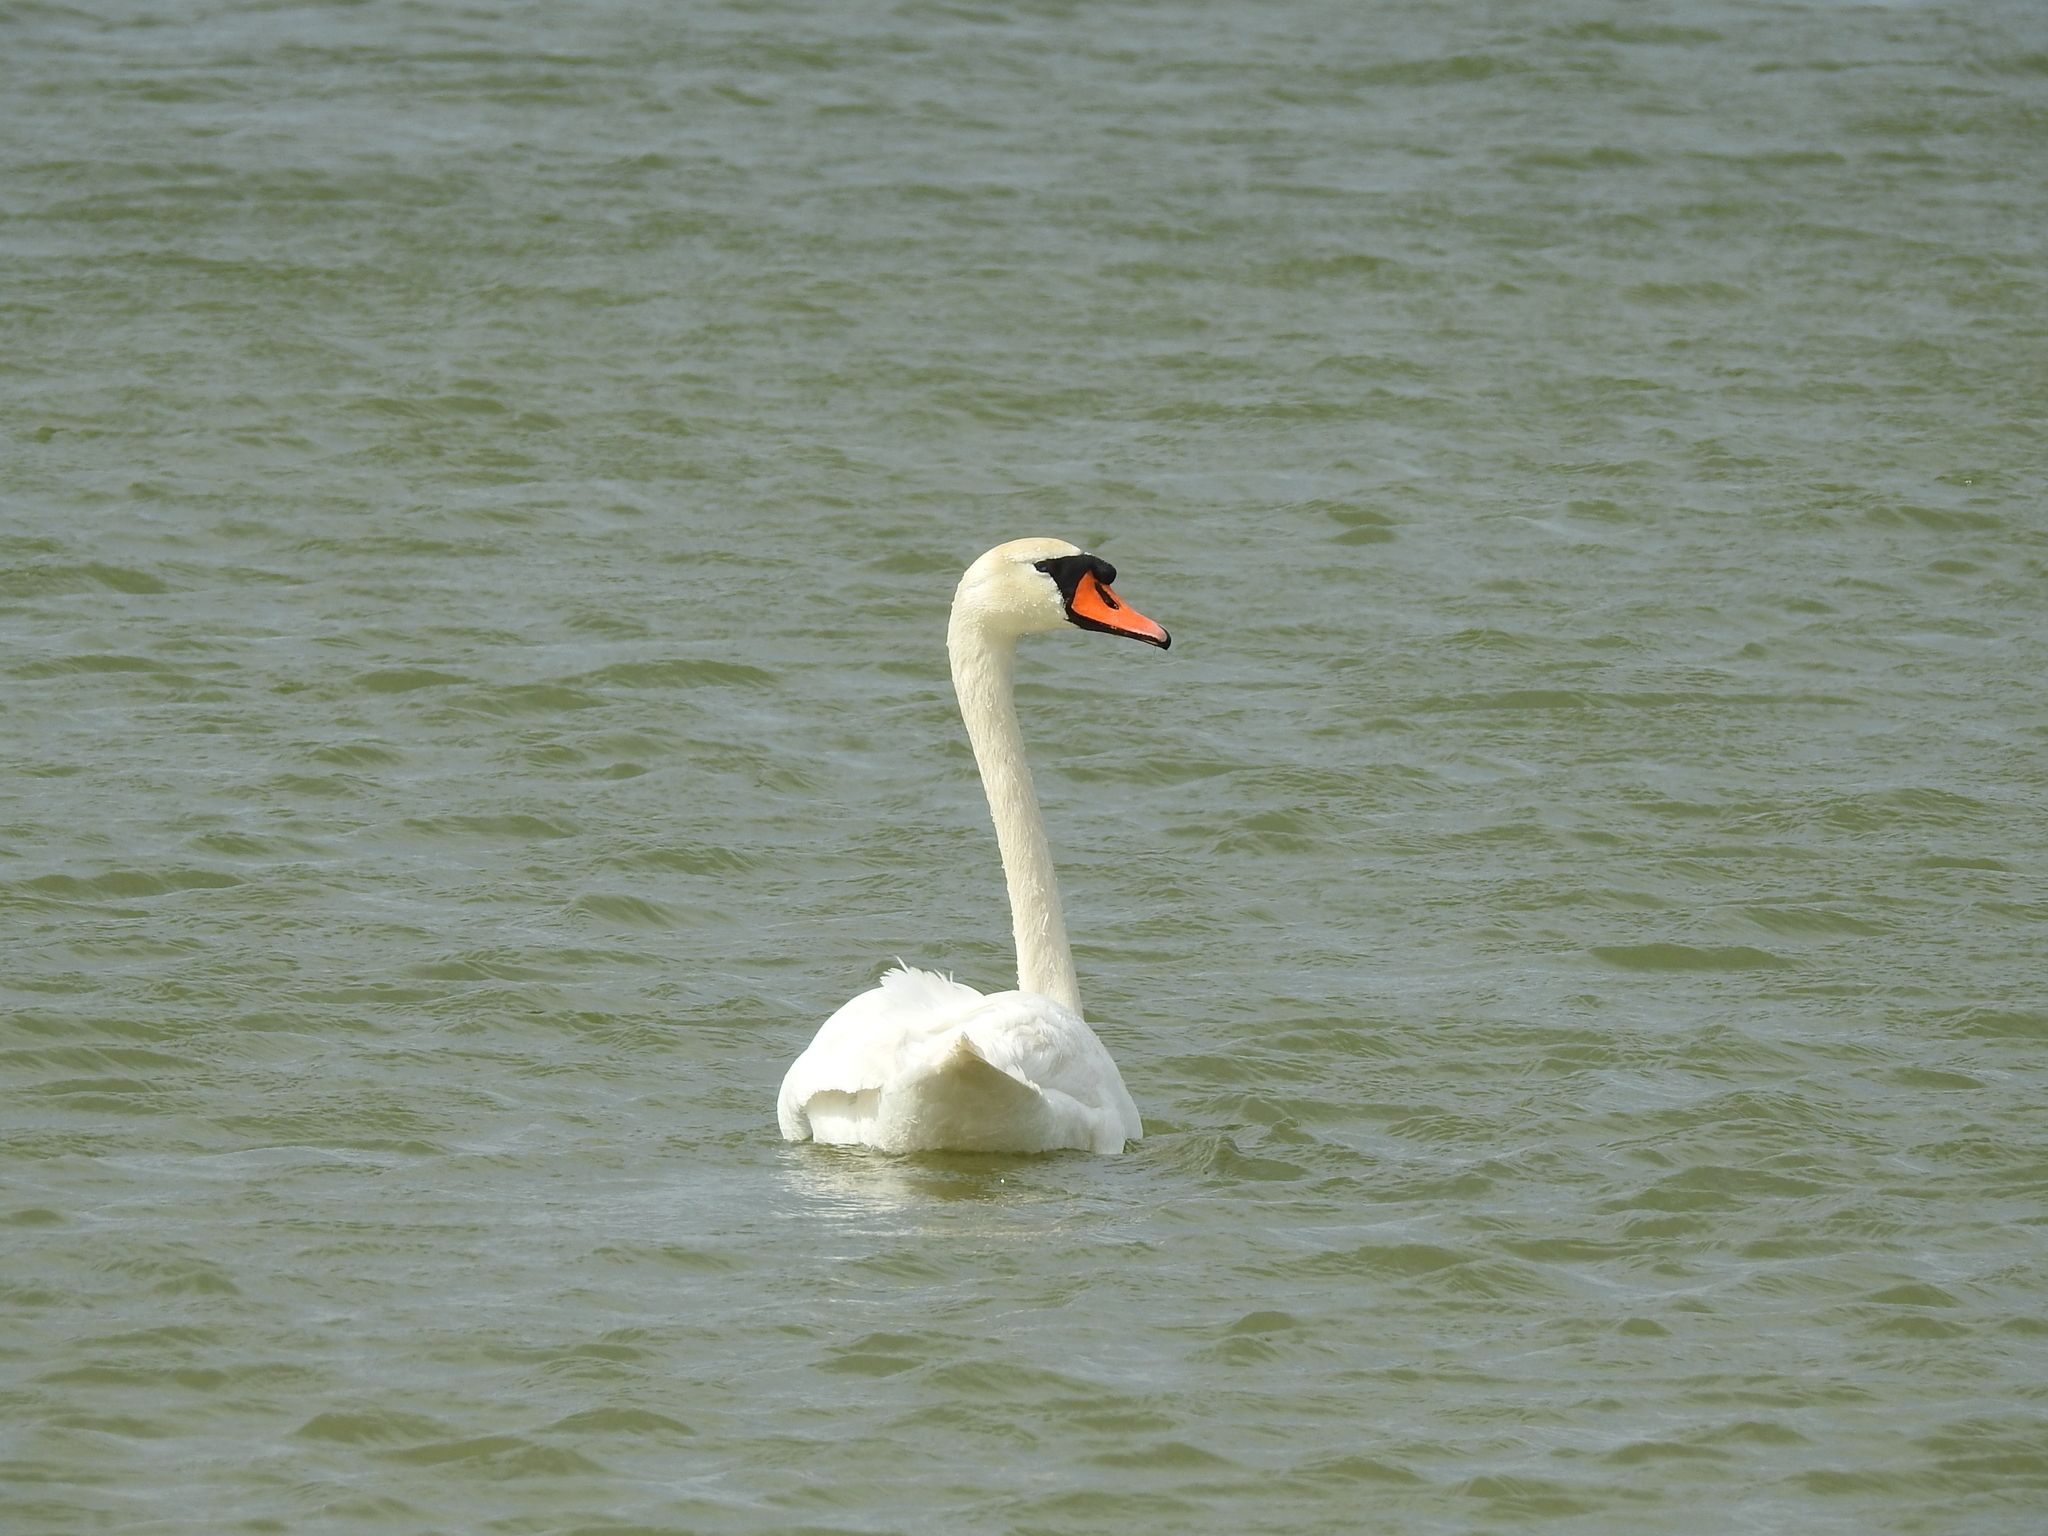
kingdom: Animalia
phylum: Chordata
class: Aves
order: Anseriformes
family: Anatidae
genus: Cygnus
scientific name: Cygnus olor
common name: Mute swan
